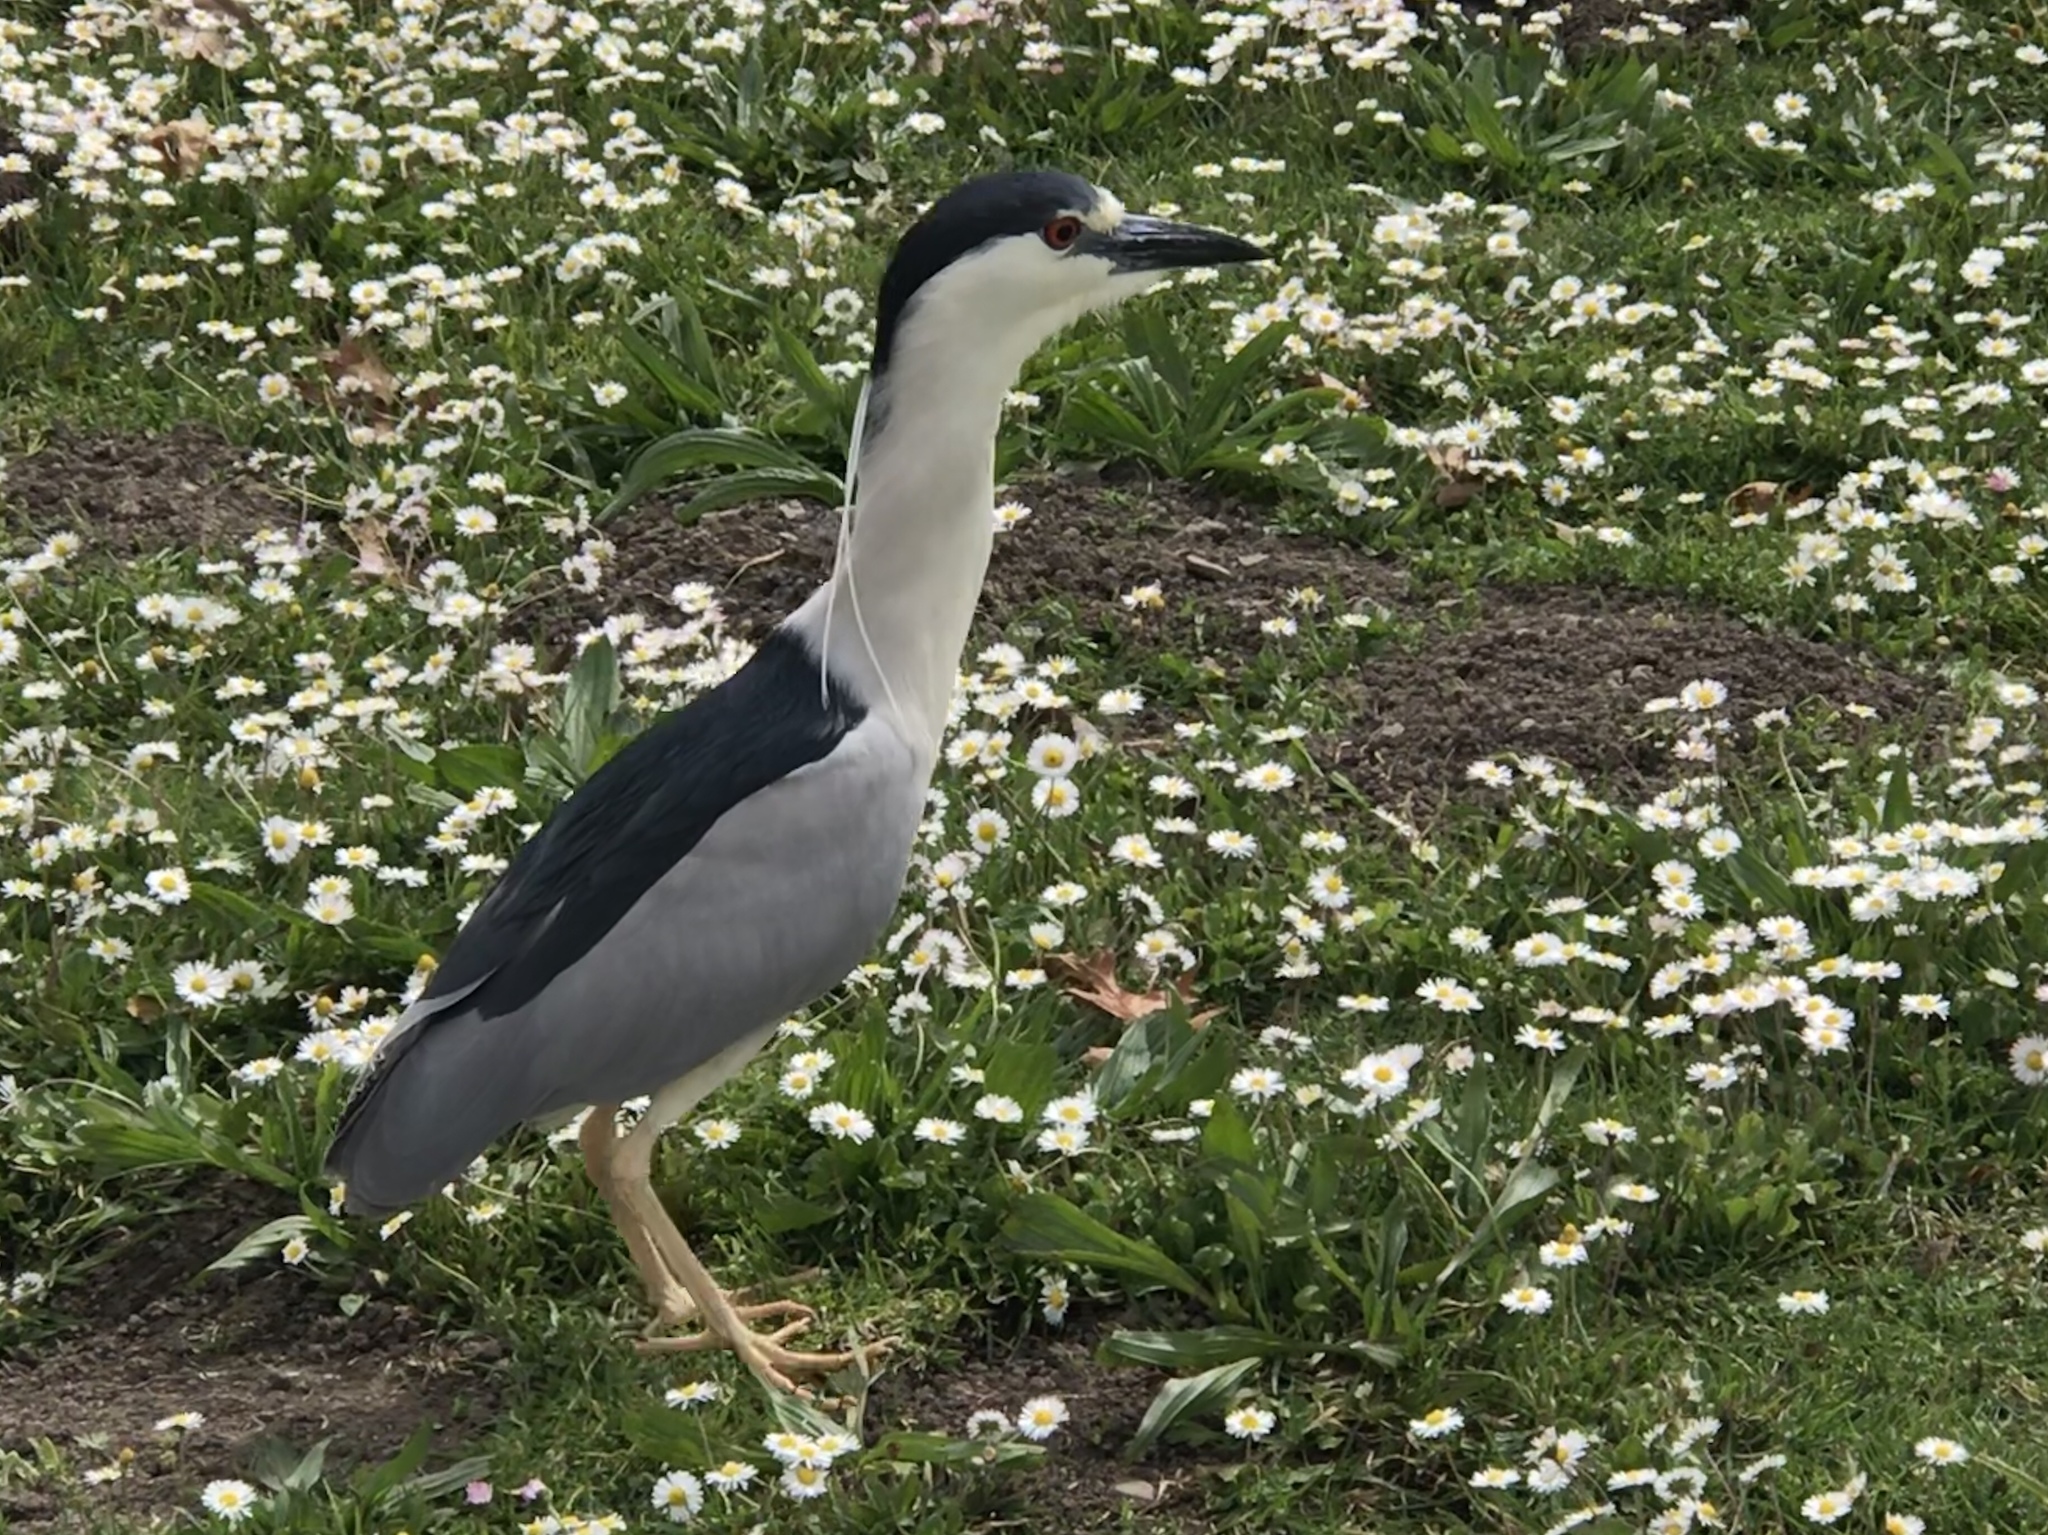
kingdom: Animalia
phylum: Chordata
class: Aves
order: Pelecaniformes
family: Ardeidae
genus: Nycticorax
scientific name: Nycticorax nycticorax
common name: Black-crowned night heron
